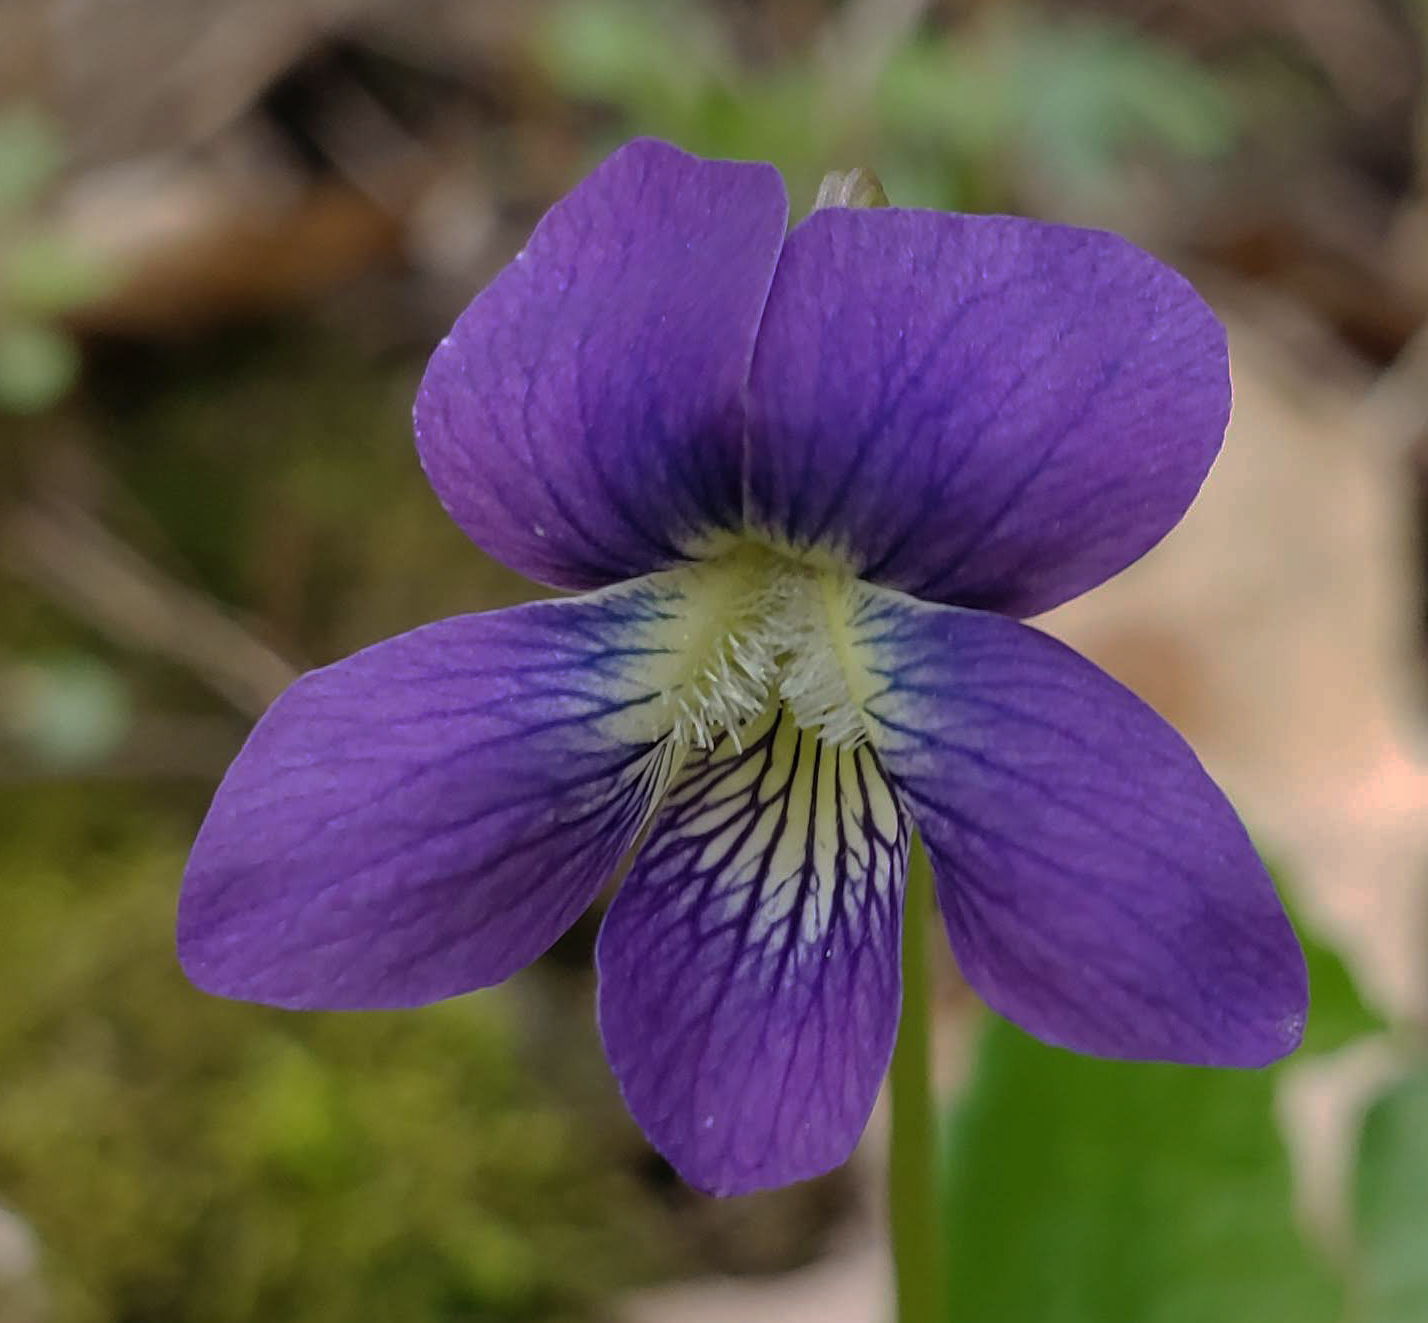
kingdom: Plantae
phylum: Tracheophyta
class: Magnoliopsida
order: Malpighiales
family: Violaceae
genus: Viola
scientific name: Viola sororia
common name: Dooryard violet
